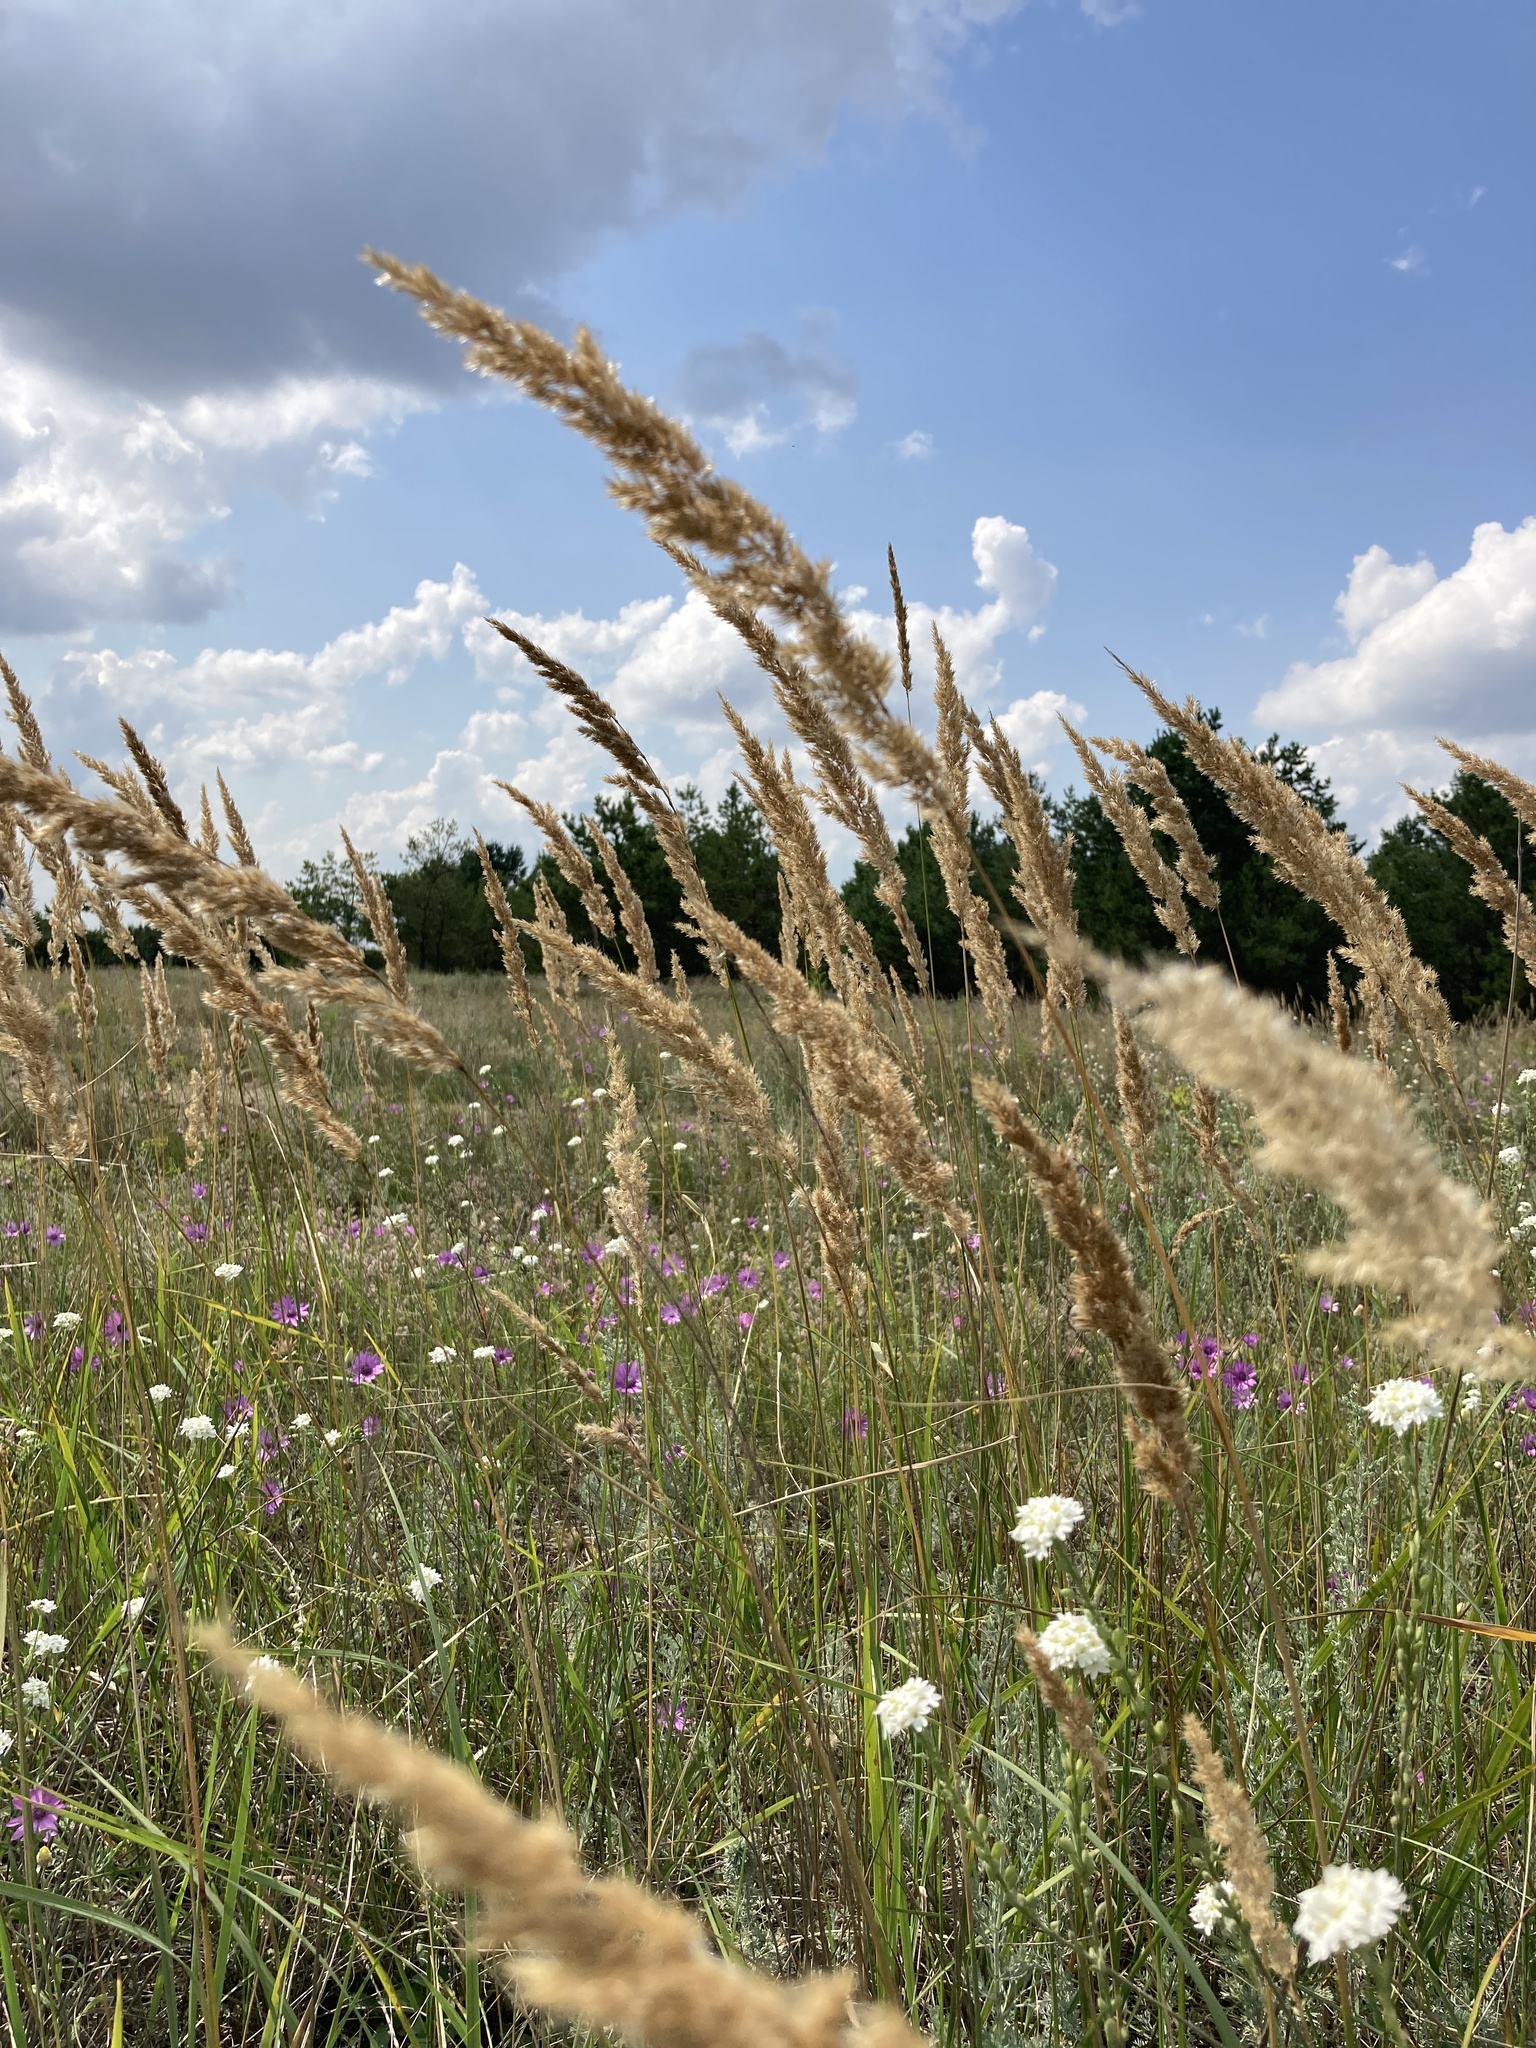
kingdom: Plantae
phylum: Tracheophyta
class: Liliopsida
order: Poales
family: Poaceae
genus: Calamagrostis
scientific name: Calamagrostis epigejos
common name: Wood small-reed
